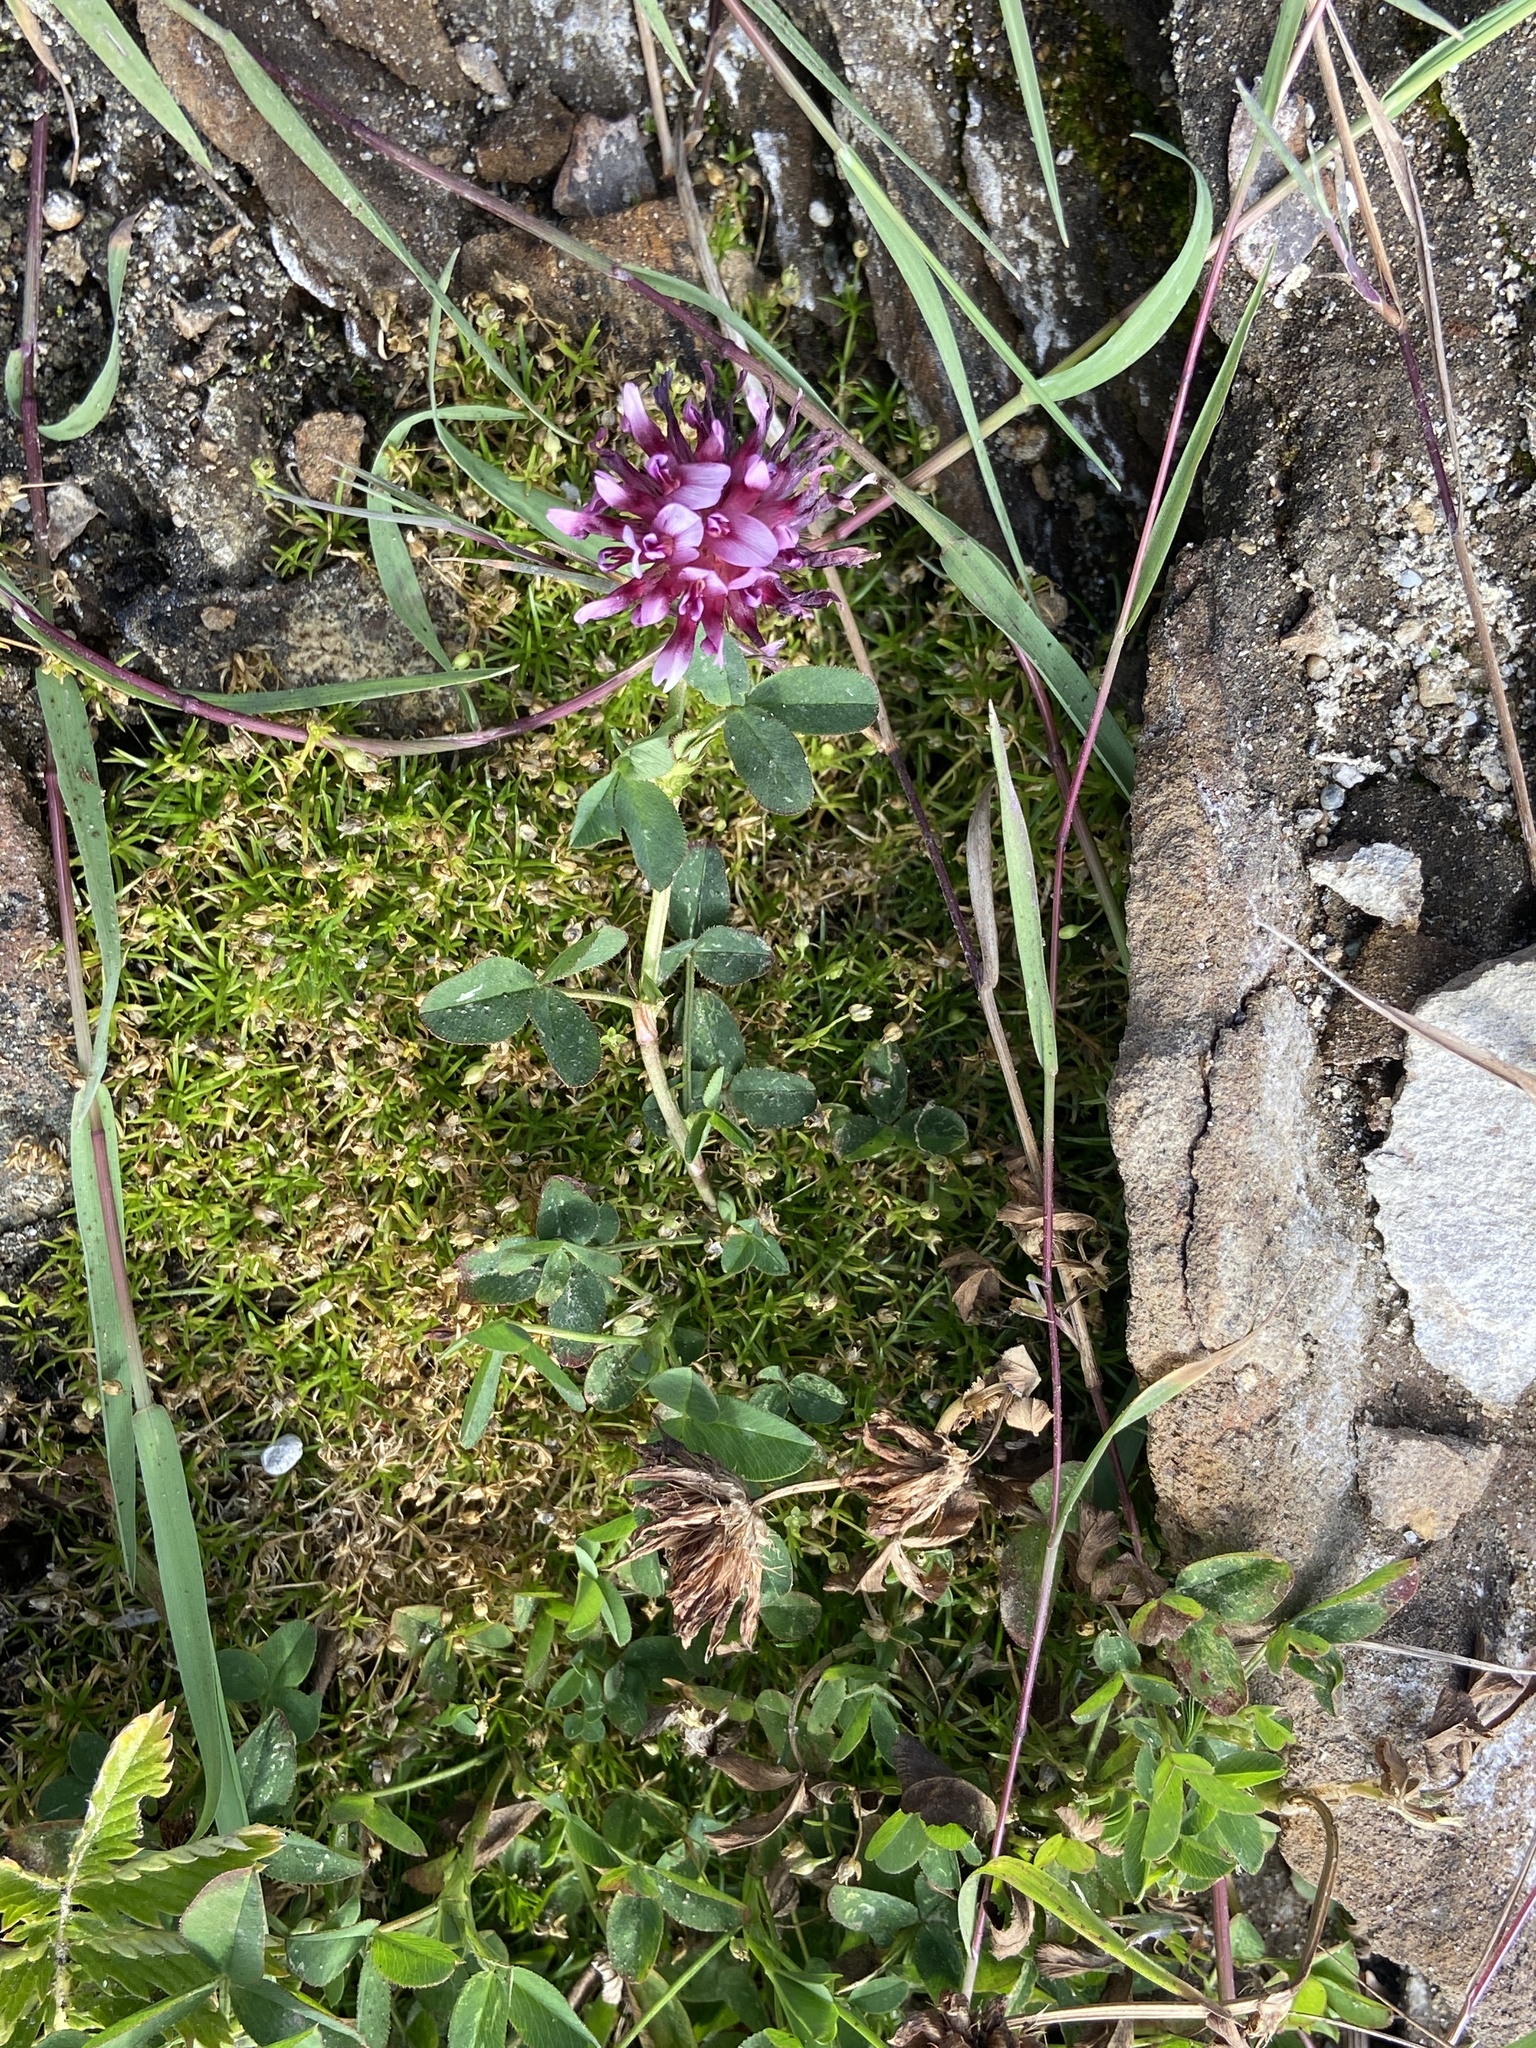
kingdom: Plantae
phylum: Tracheophyta
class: Magnoliopsida
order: Fabales
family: Fabaceae
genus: Trifolium
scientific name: Trifolium wormskioldii
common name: Springbank clover
